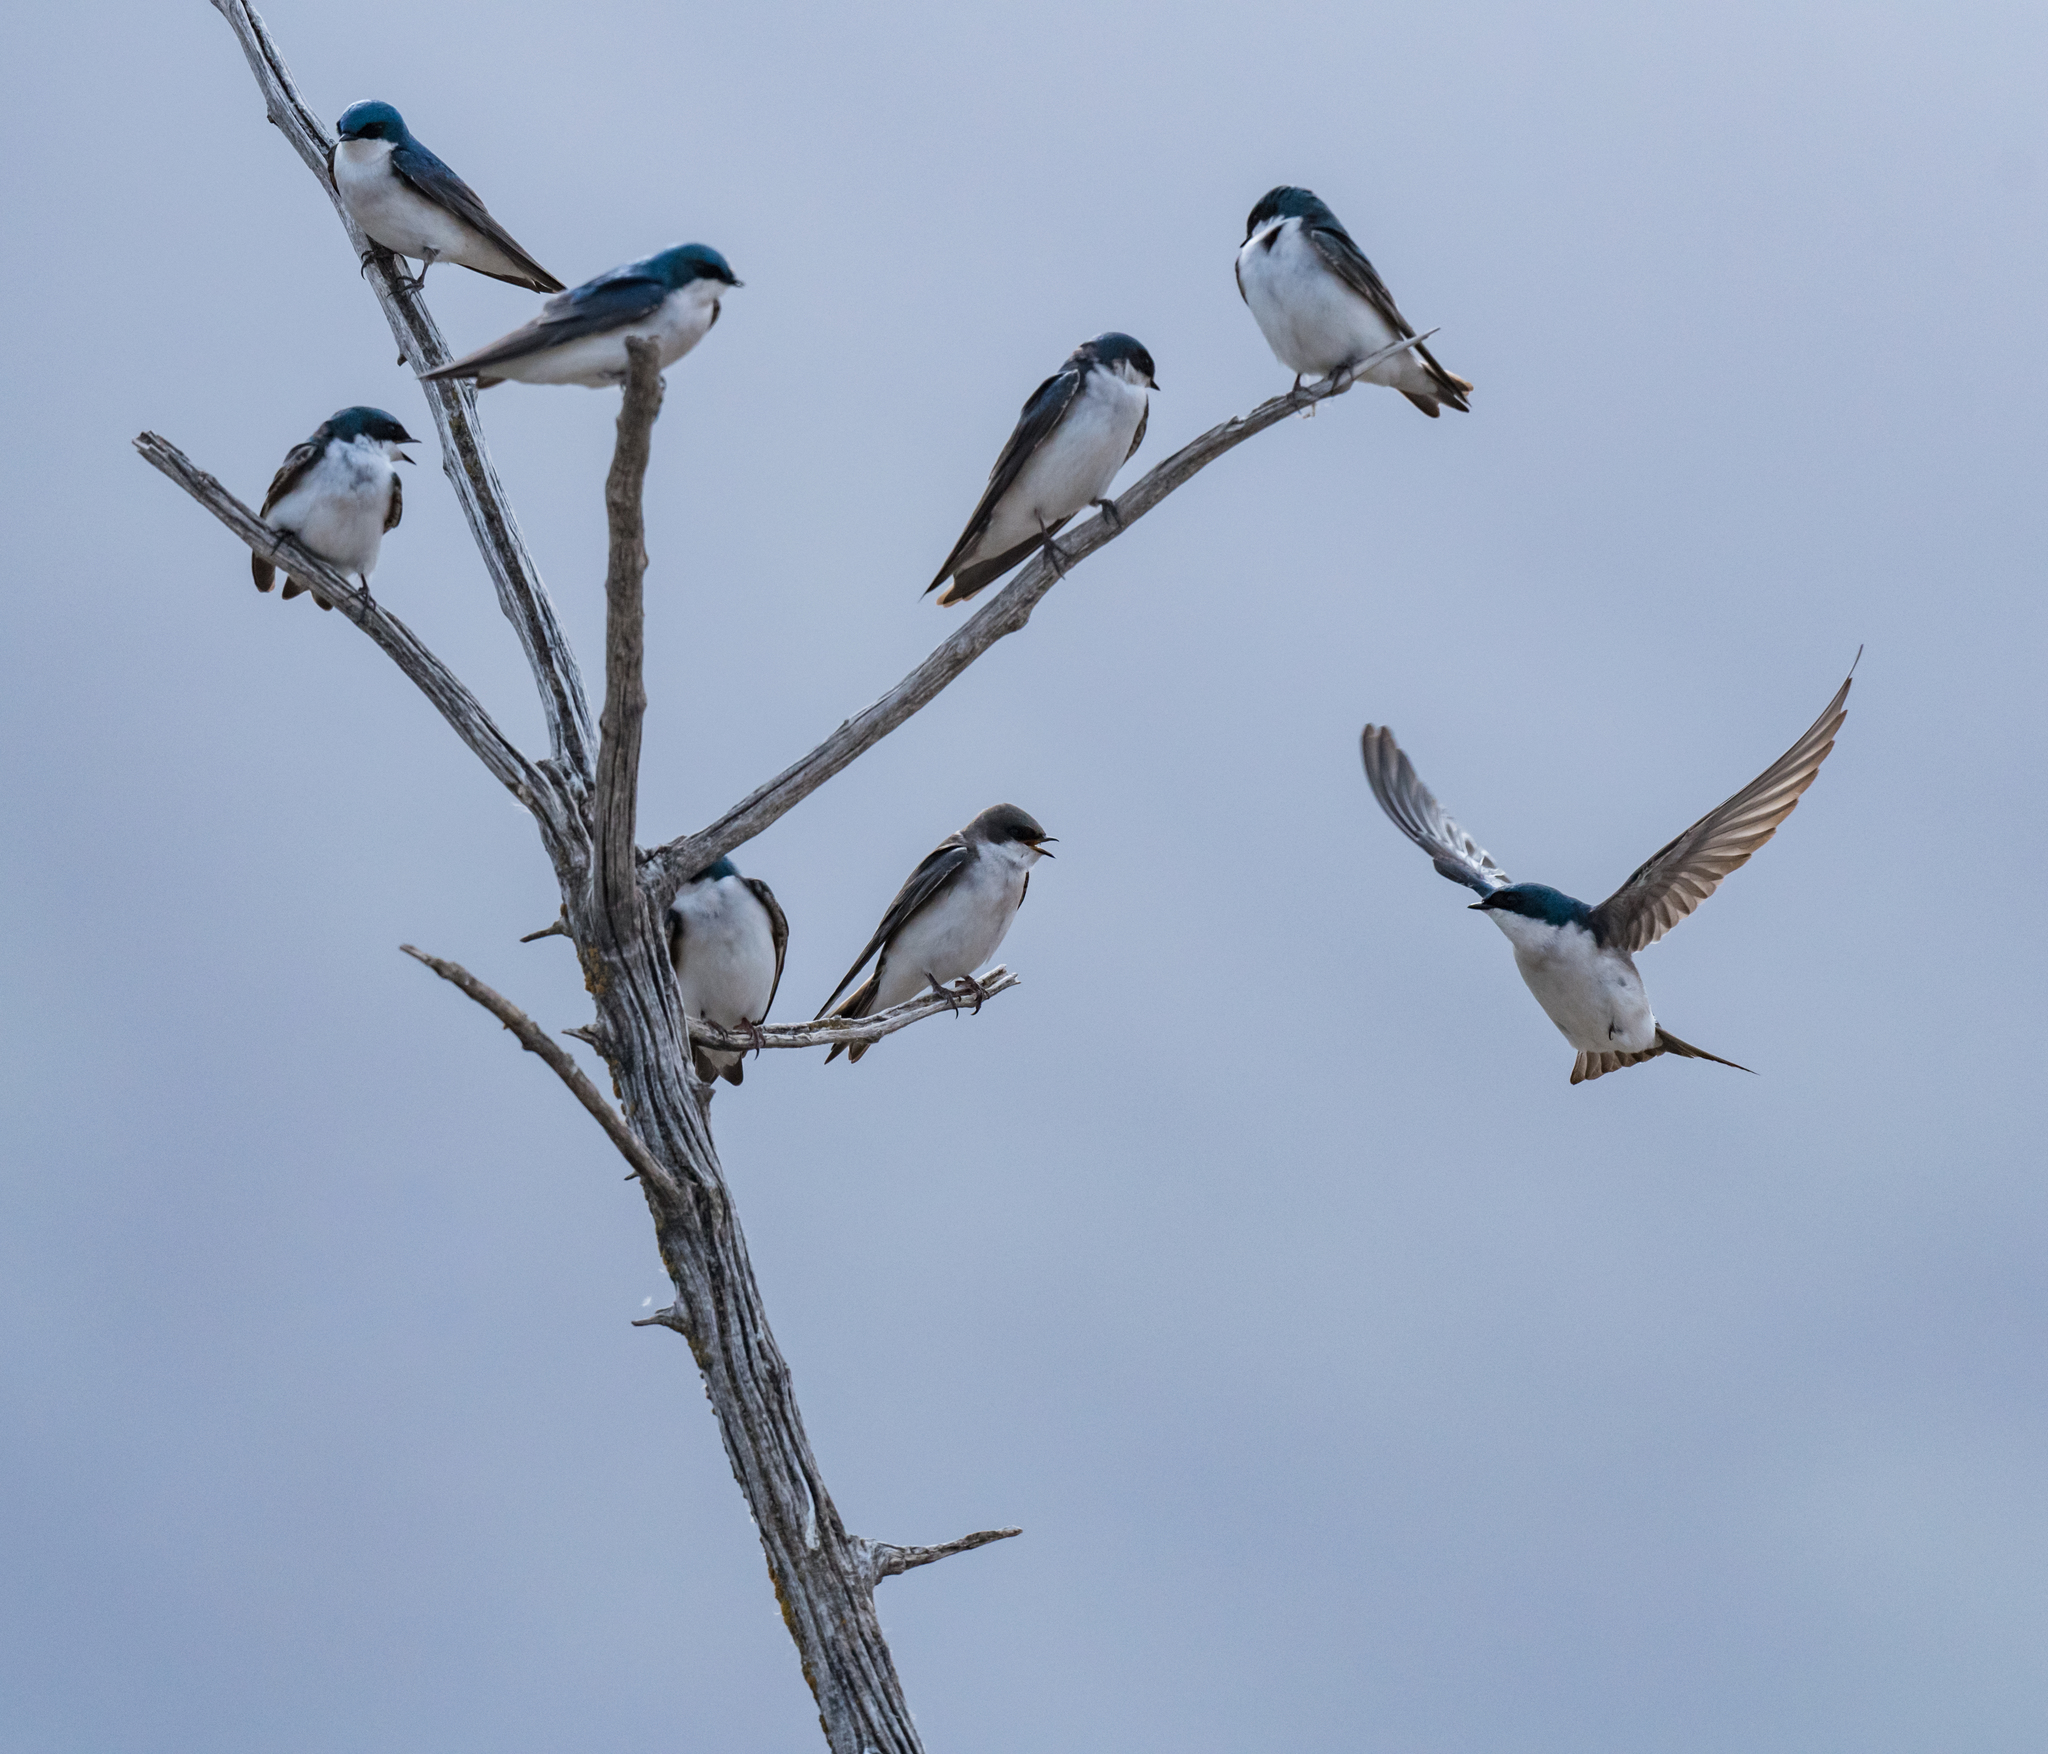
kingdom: Animalia
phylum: Chordata
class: Aves
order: Passeriformes
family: Hirundinidae
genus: Tachycineta
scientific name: Tachycineta bicolor
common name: Tree swallow
